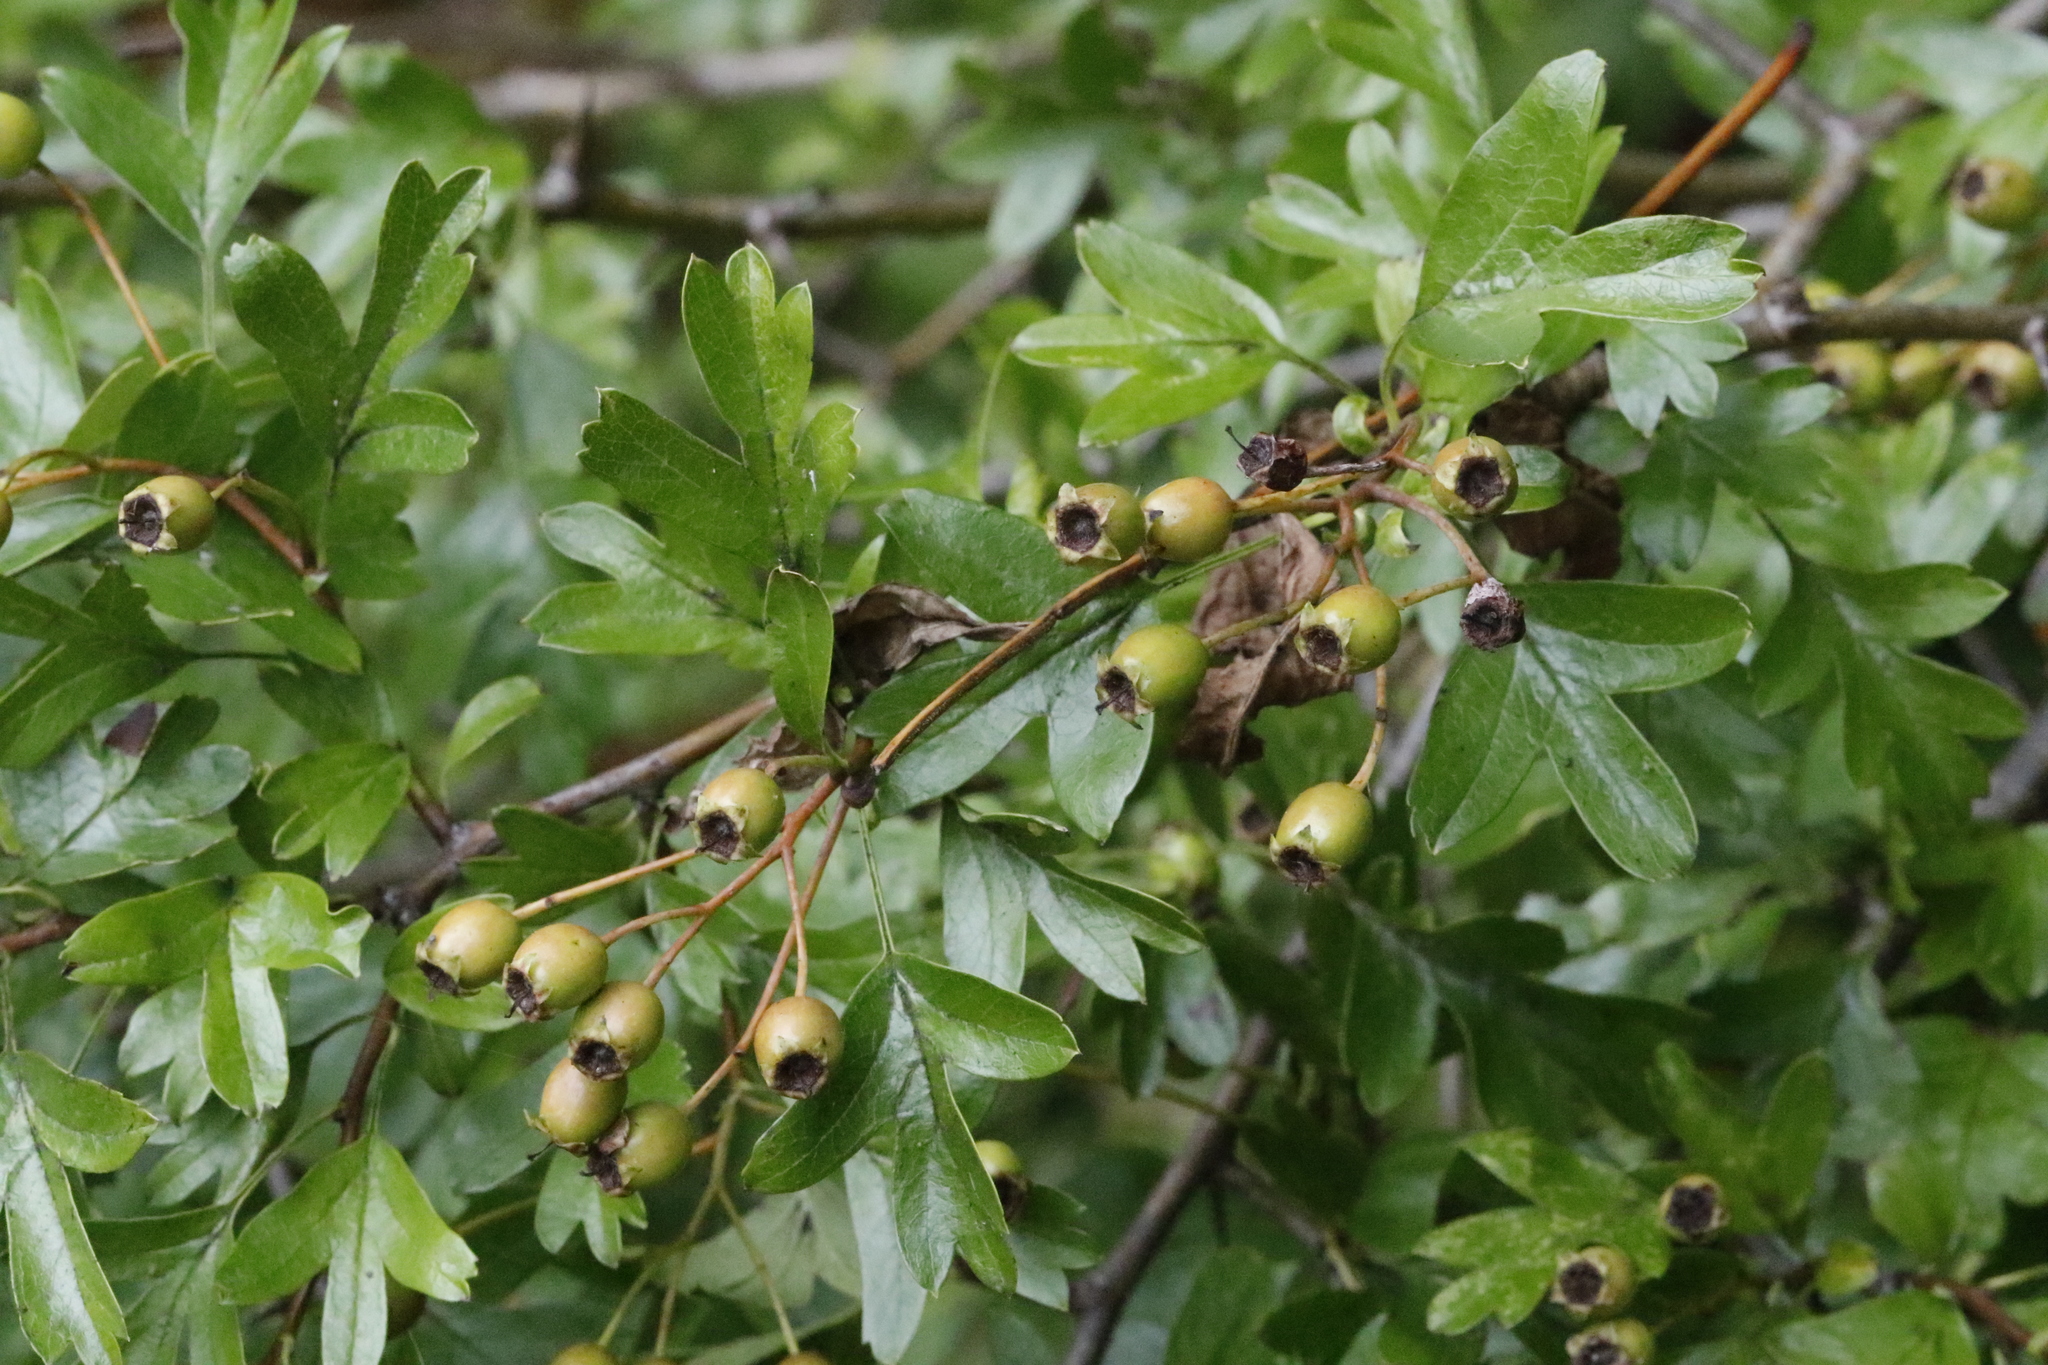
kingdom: Plantae
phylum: Tracheophyta
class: Magnoliopsida
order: Rosales
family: Rosaceae
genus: Crataegus
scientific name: Crataegus monogyna
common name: Hawthorn
